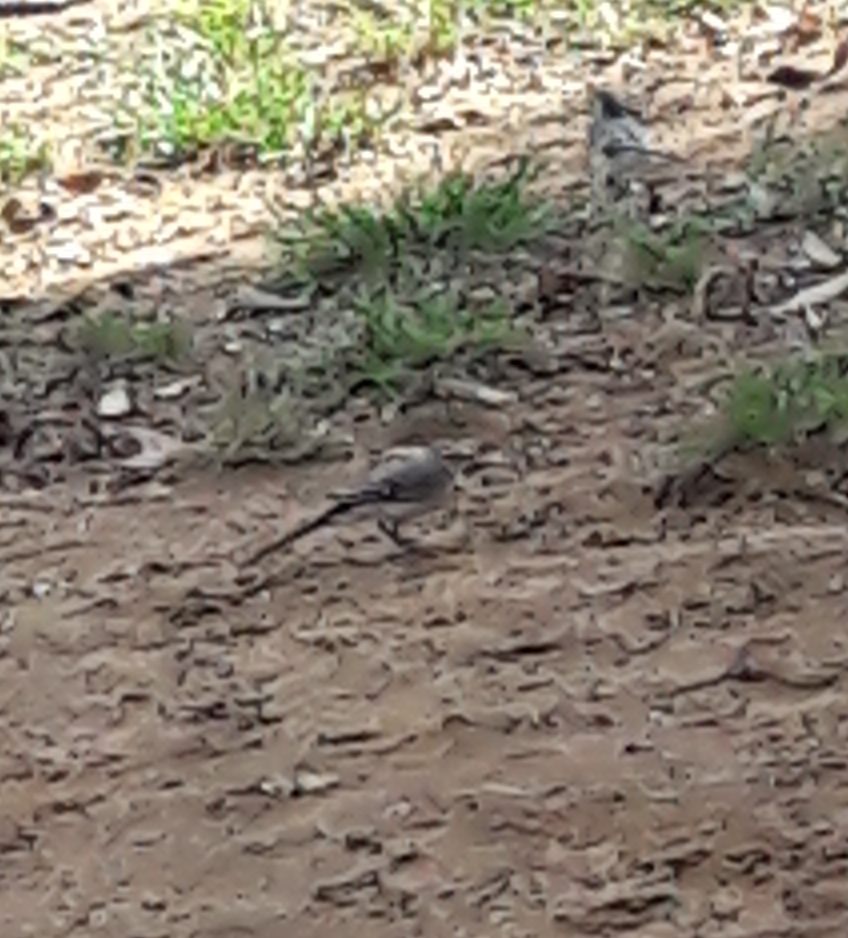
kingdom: Animalia
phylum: Chordata
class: Aves
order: Passeriformes
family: Motacillidae
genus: Motacilla
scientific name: Motacilla alba
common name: White wagtail
